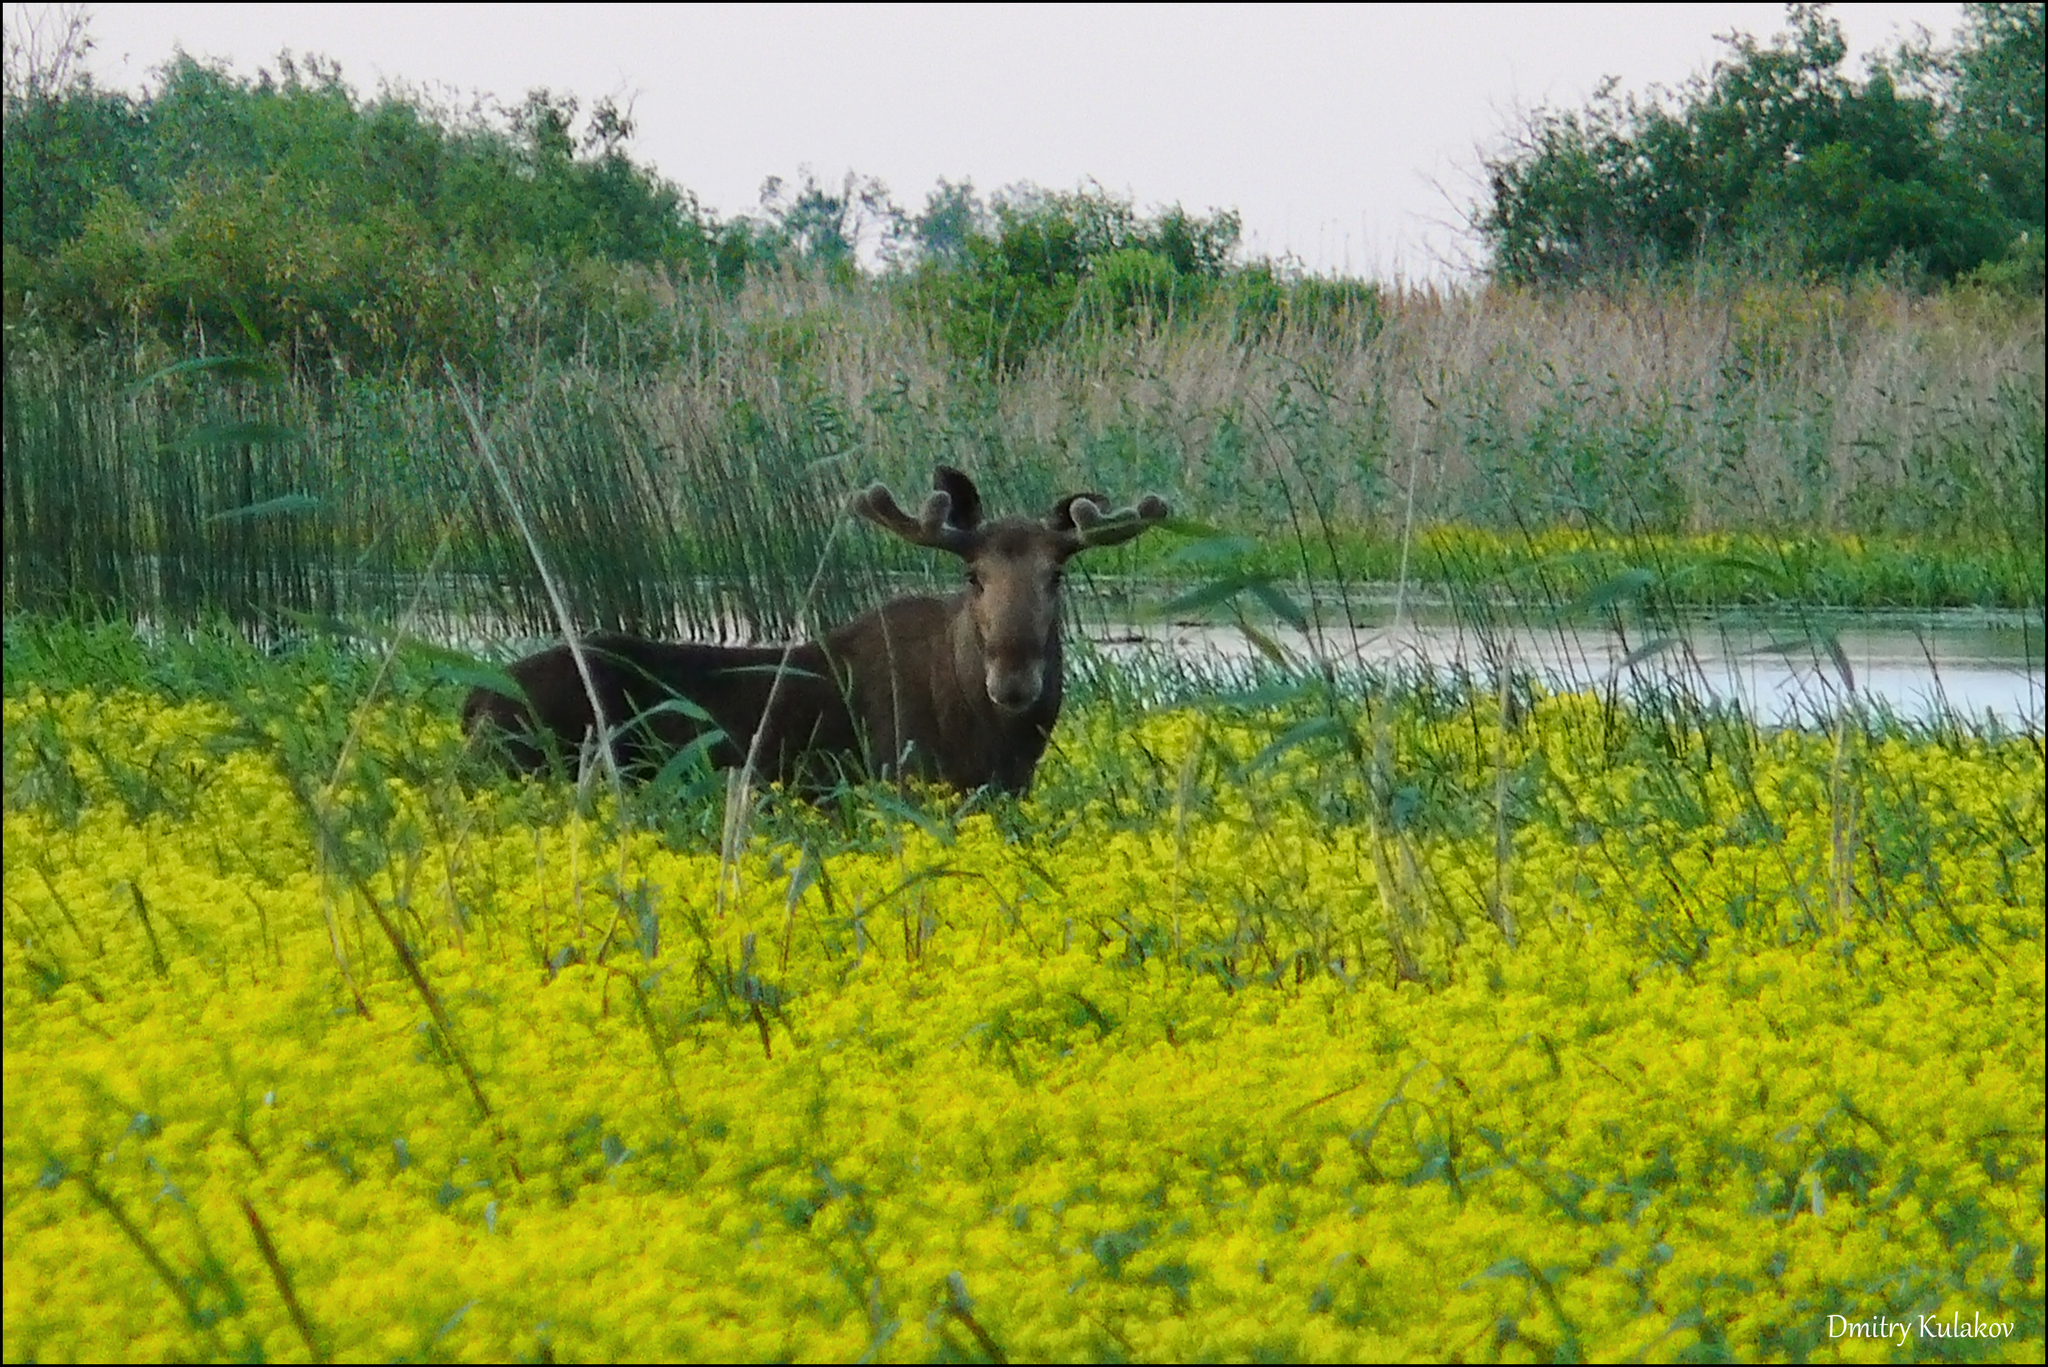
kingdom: Animalia
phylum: Chordata
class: Mammalia
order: Artiodactyla
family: Cervidae
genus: Alces
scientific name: Alces alces
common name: Moose
